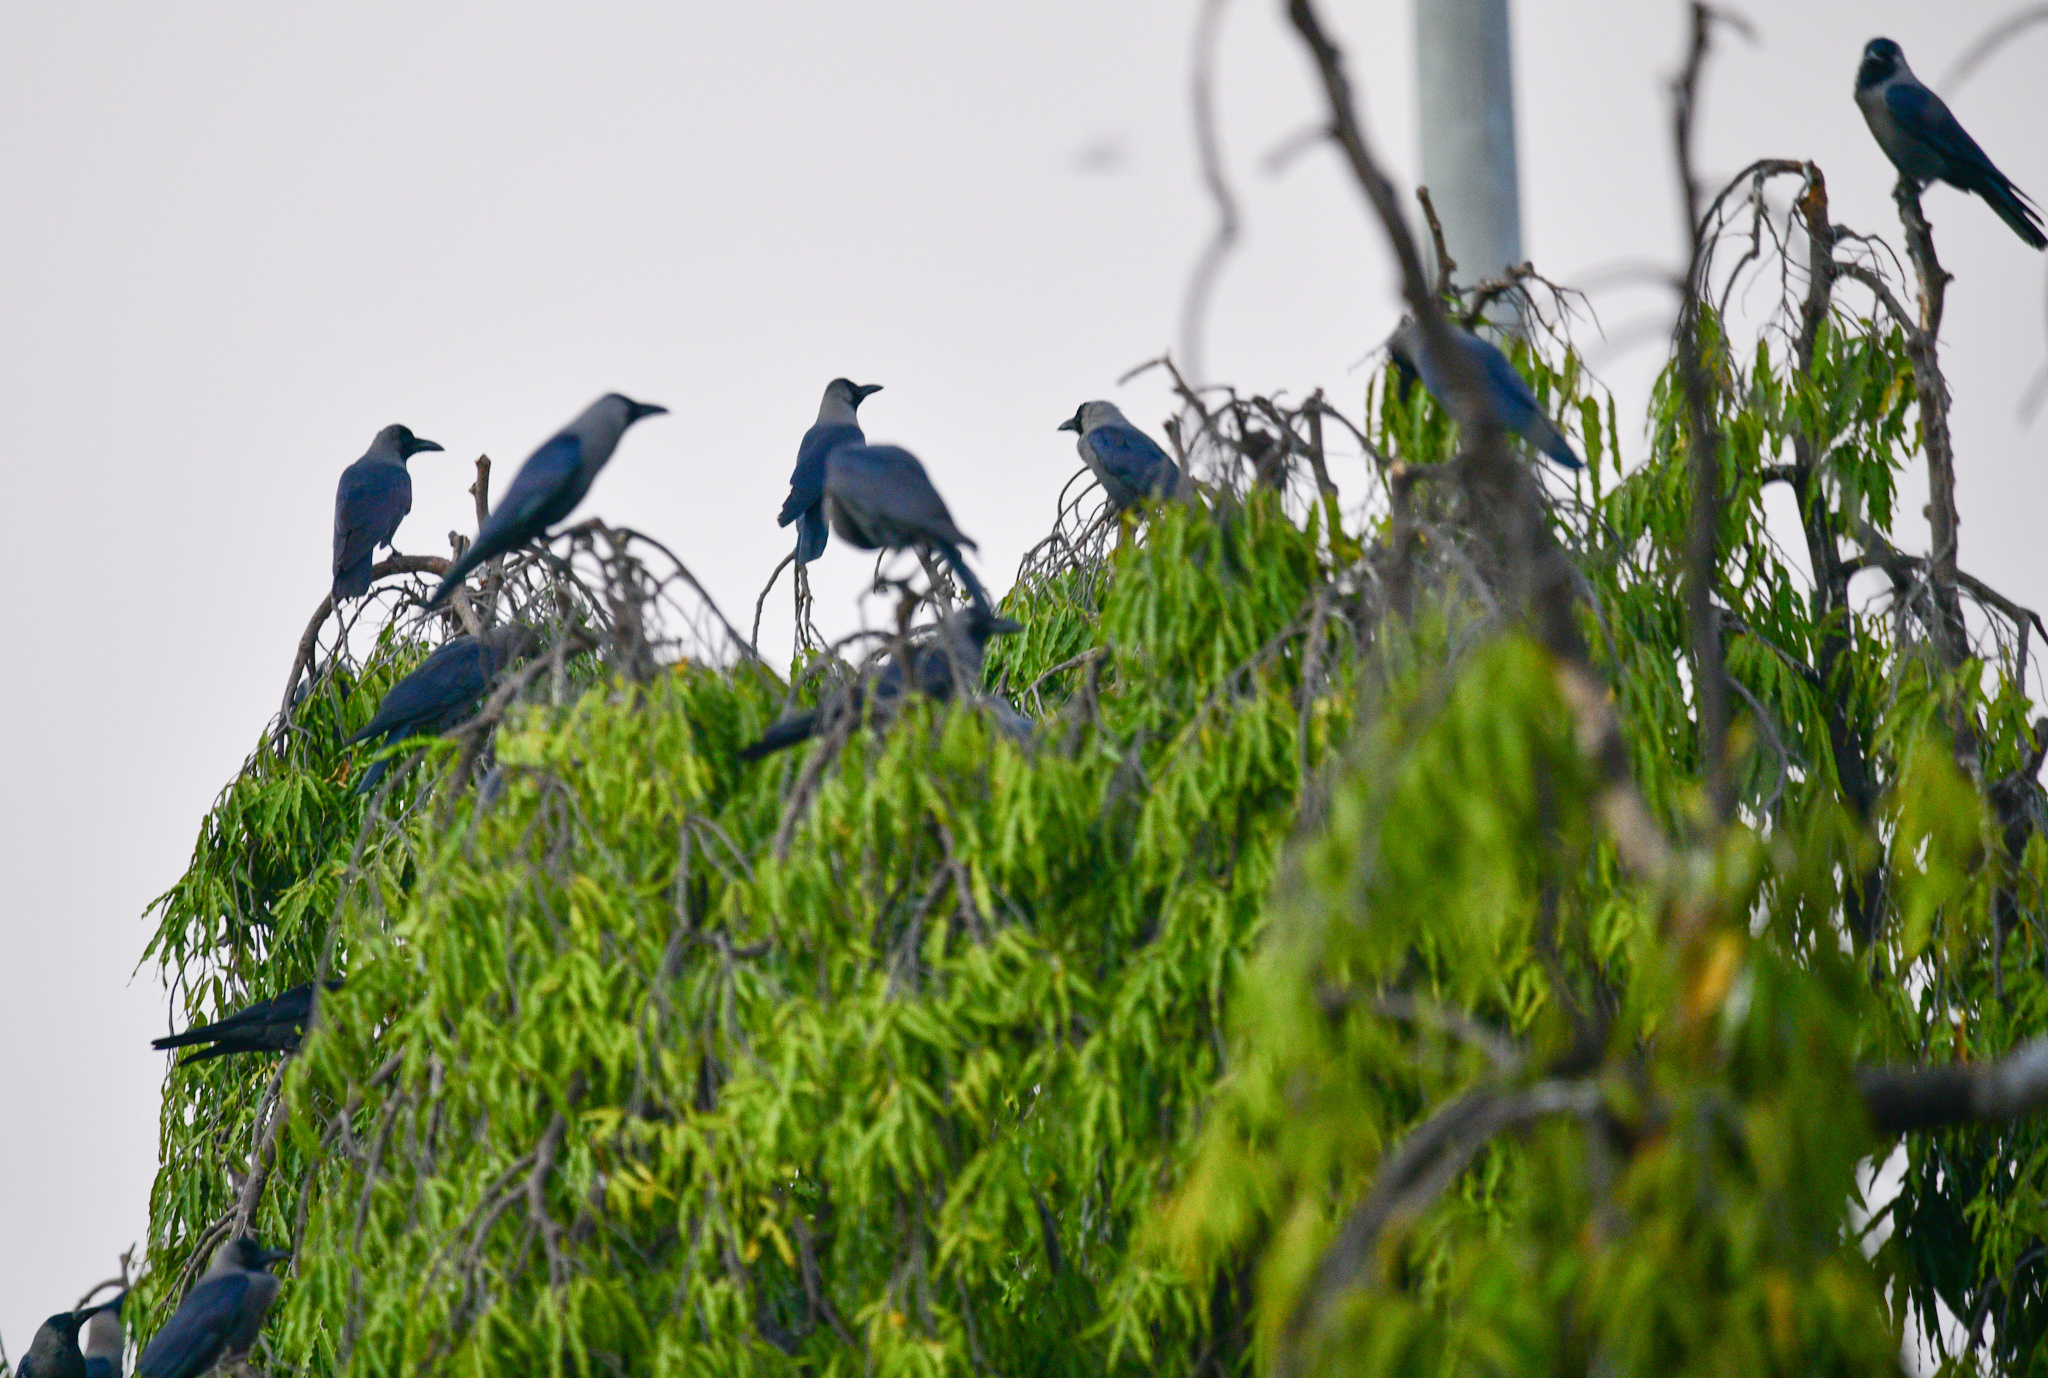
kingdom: Animalia
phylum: Chordata
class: Aves
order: Passeriformes
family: Corvidae
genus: Corvus
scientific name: Corvus splendens
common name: House crow
